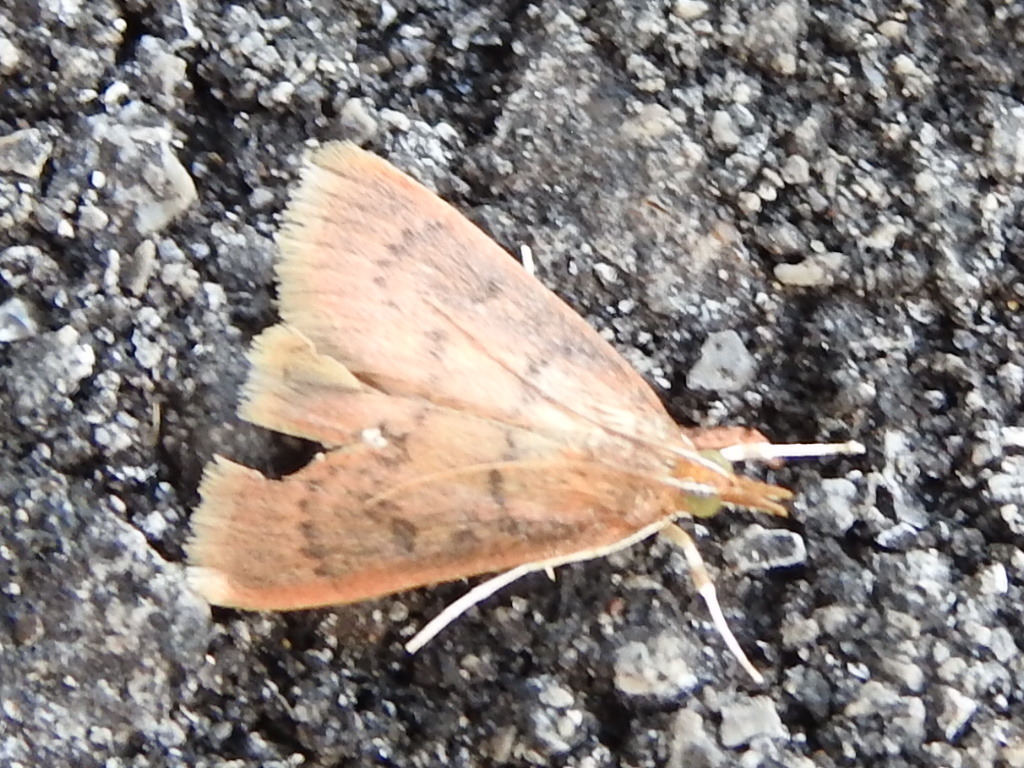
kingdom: Animalia
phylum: Arthropoda
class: Insecta
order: Lepidoptera
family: Crambidae
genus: Udea
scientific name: Udea rubigalis
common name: Celery leaftier moth
